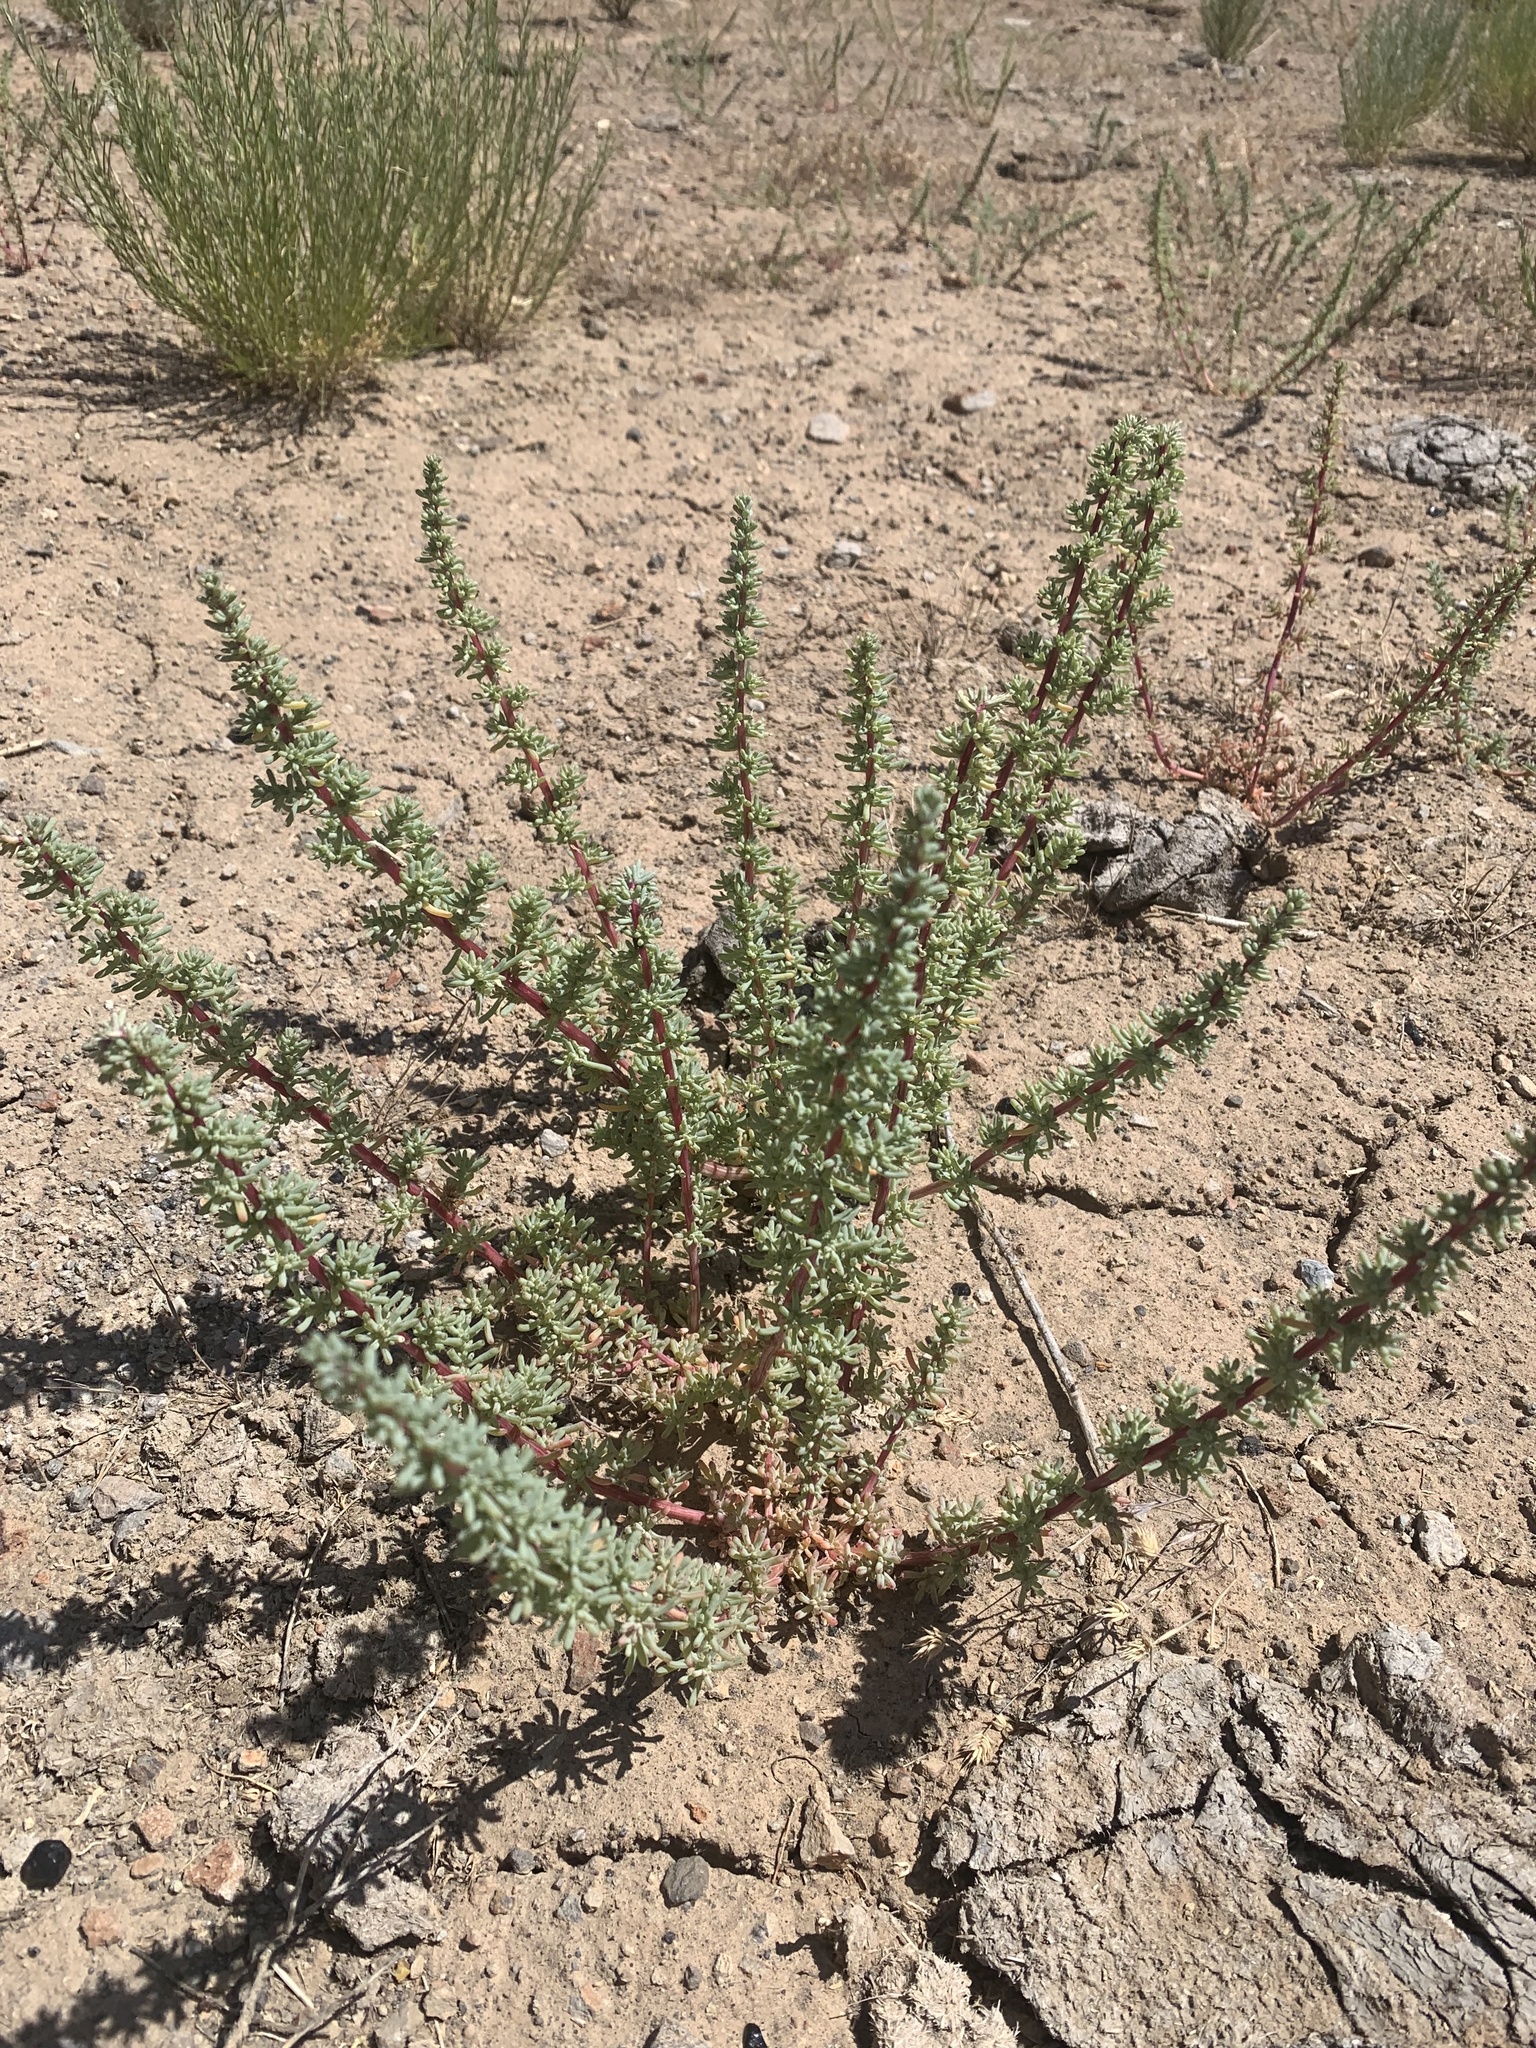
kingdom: Plantae
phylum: Tracheophyta
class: Magnoliopsida
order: Caryophyllales
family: Amaranthaceae
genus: Halogeton
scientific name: Halogeton glomeratus
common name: Saltlover
